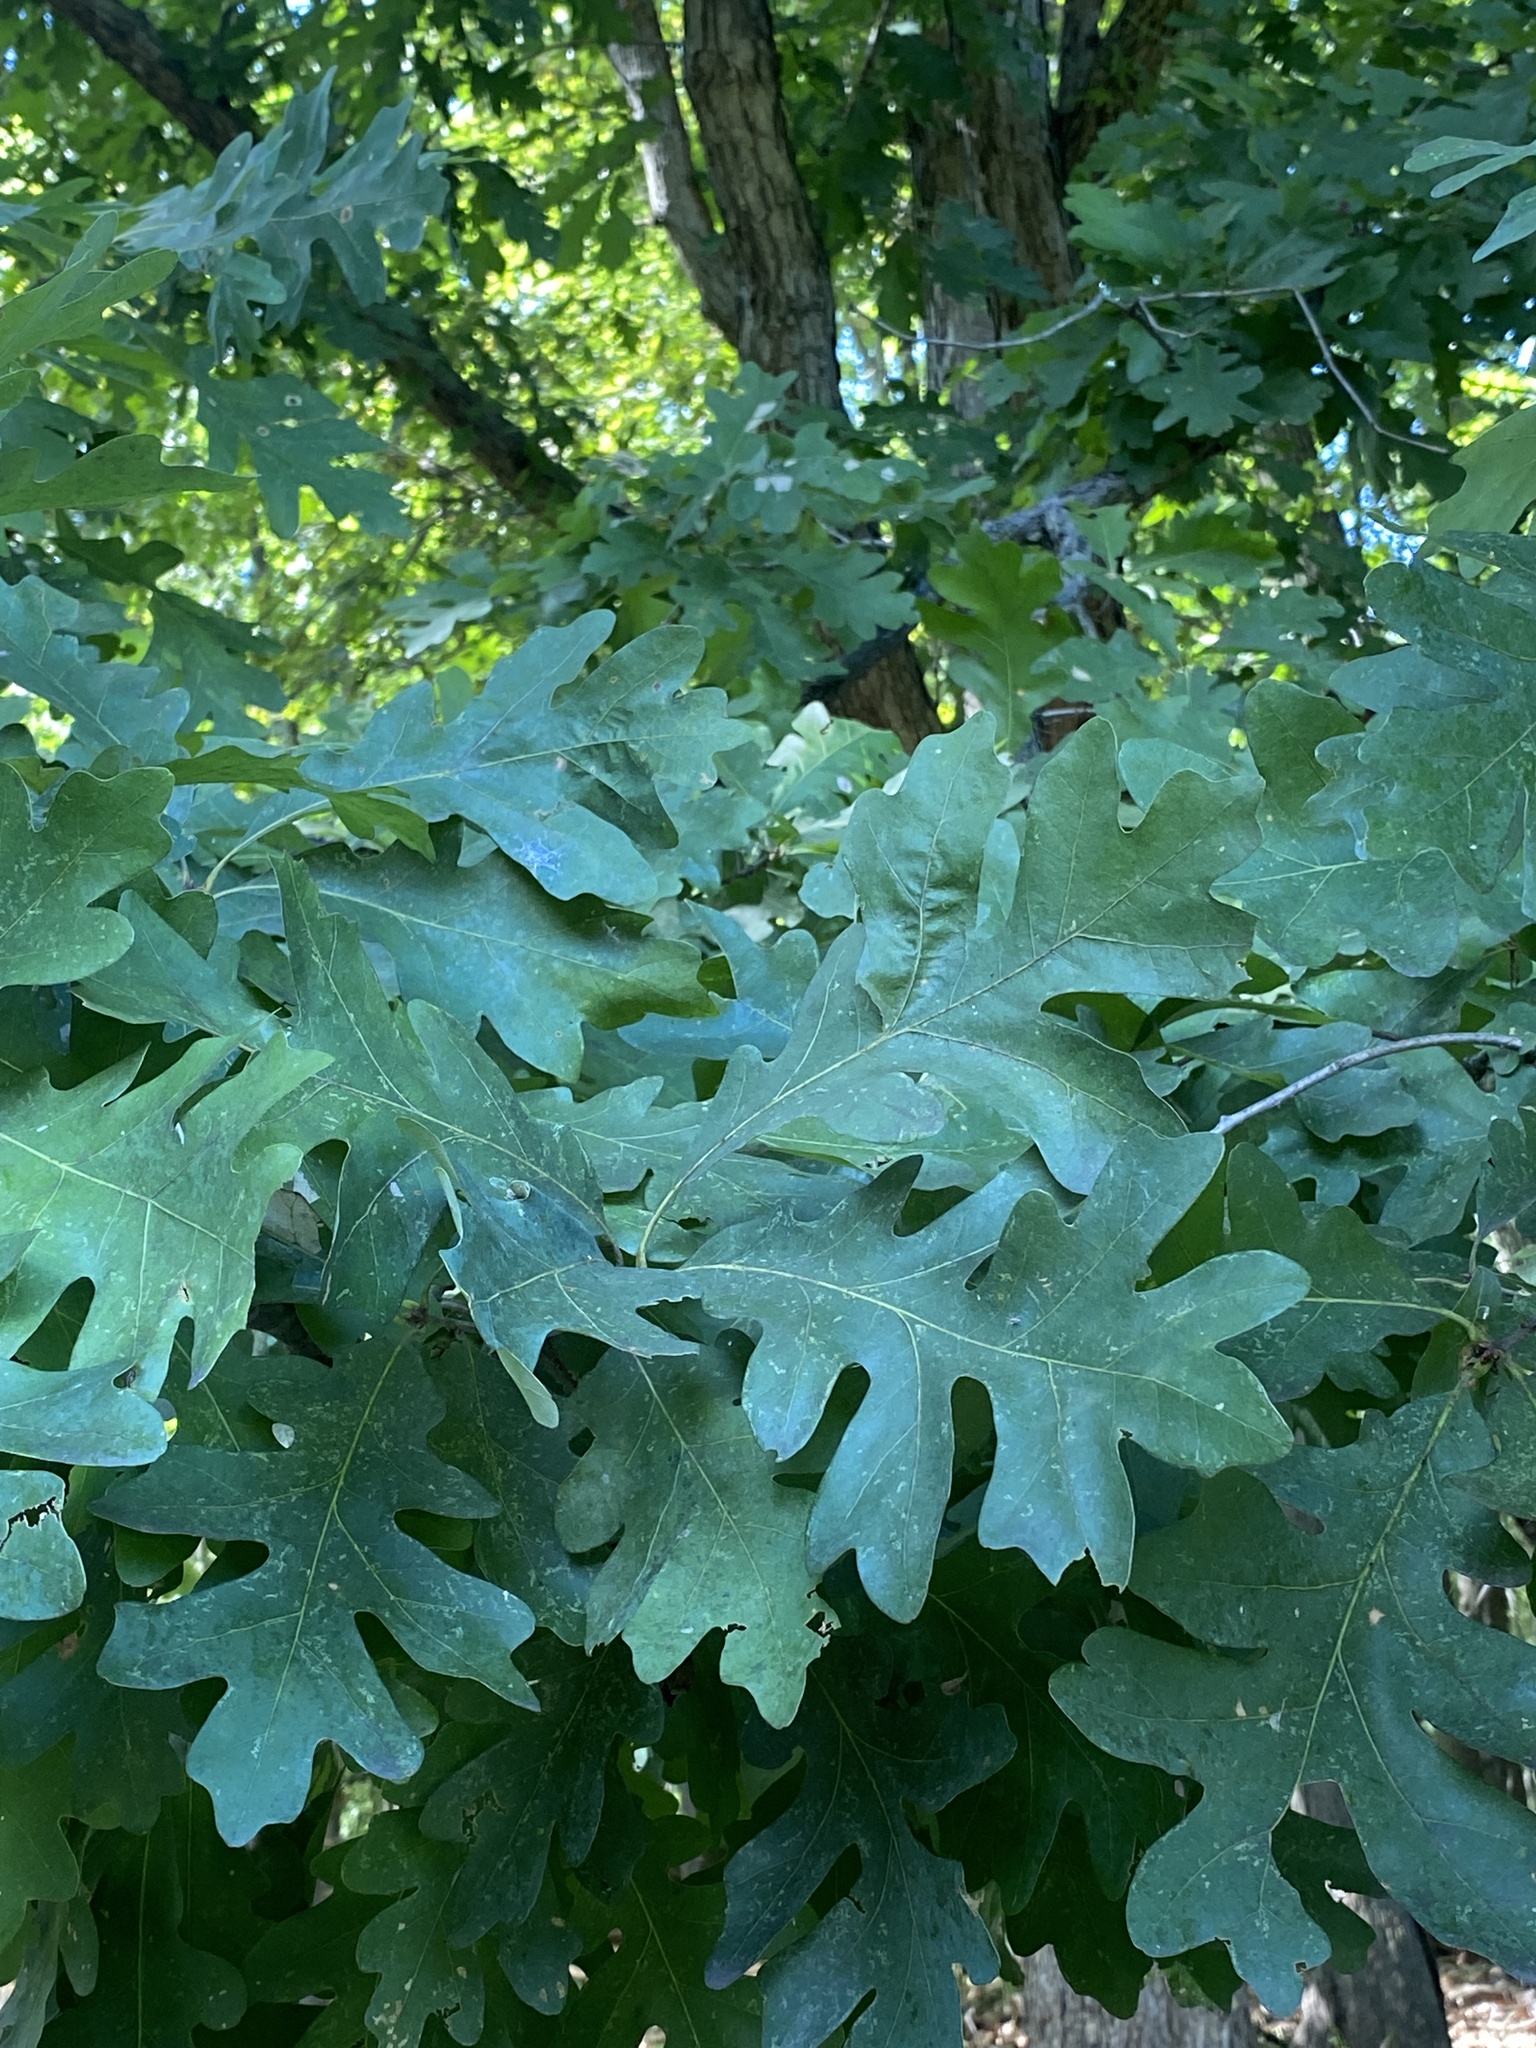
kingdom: Plantae
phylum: Tracheophyta
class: Magnoliopsida
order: Fagales
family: Fagaceae
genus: Quercus
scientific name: Quercus alba
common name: White oak
